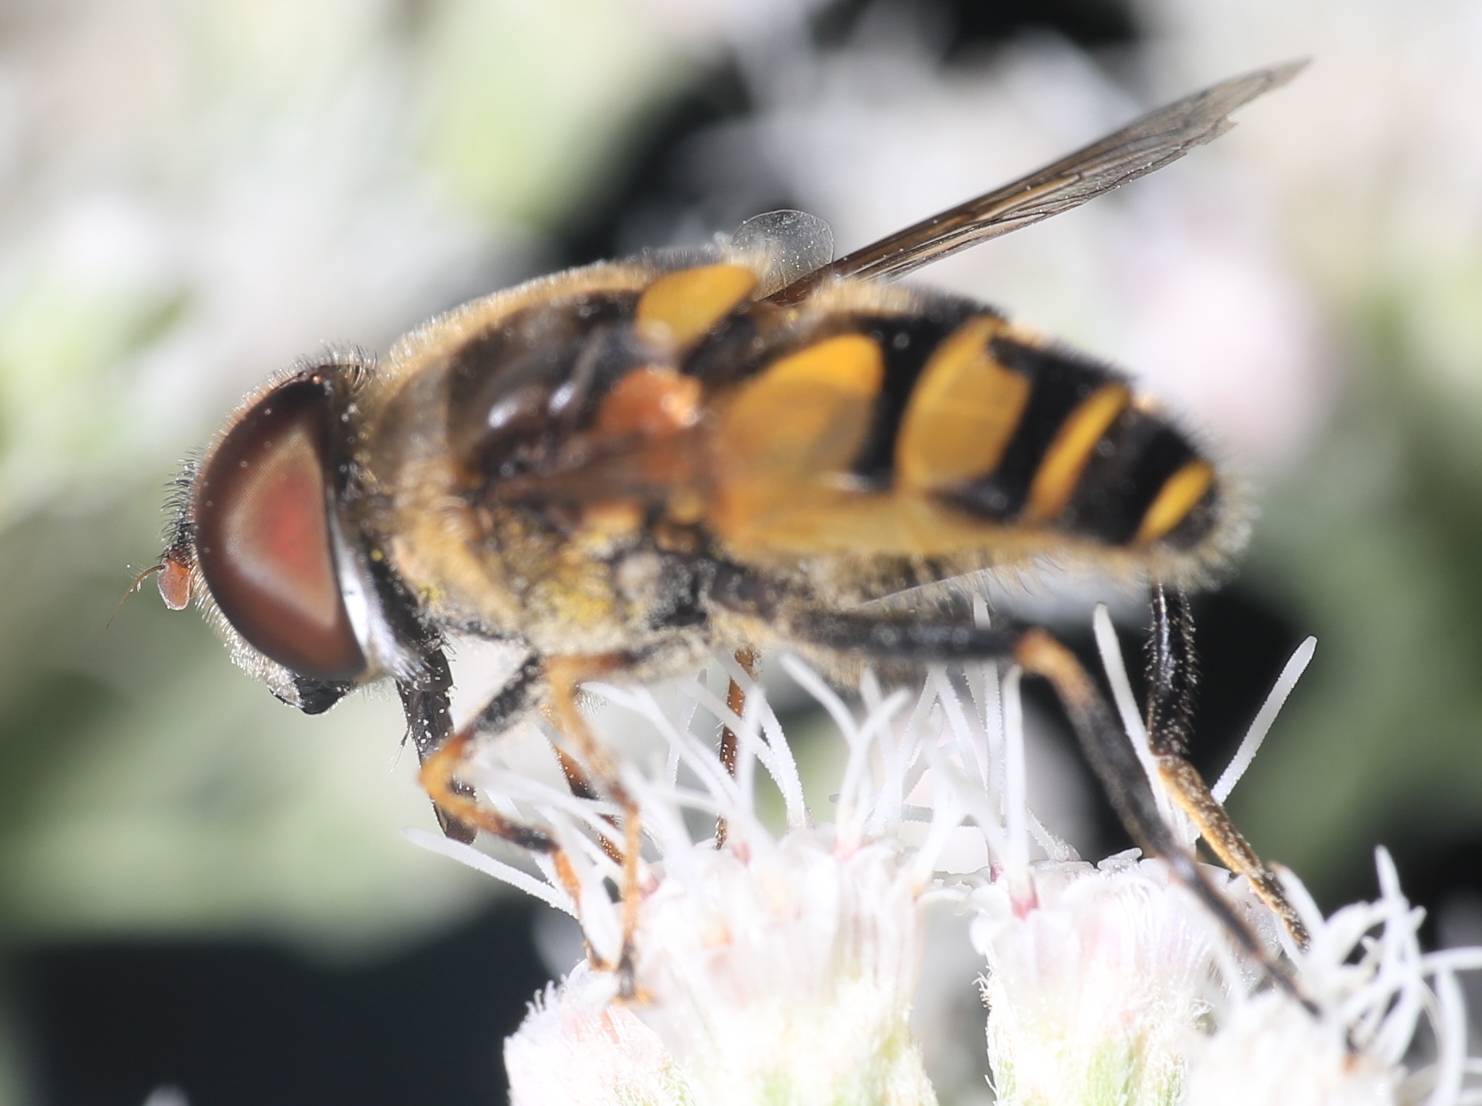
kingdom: Animalia
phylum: Arthropoda
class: Insecta
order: Diptera
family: Syrphidae
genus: Eristalis
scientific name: Eristalis transversa
